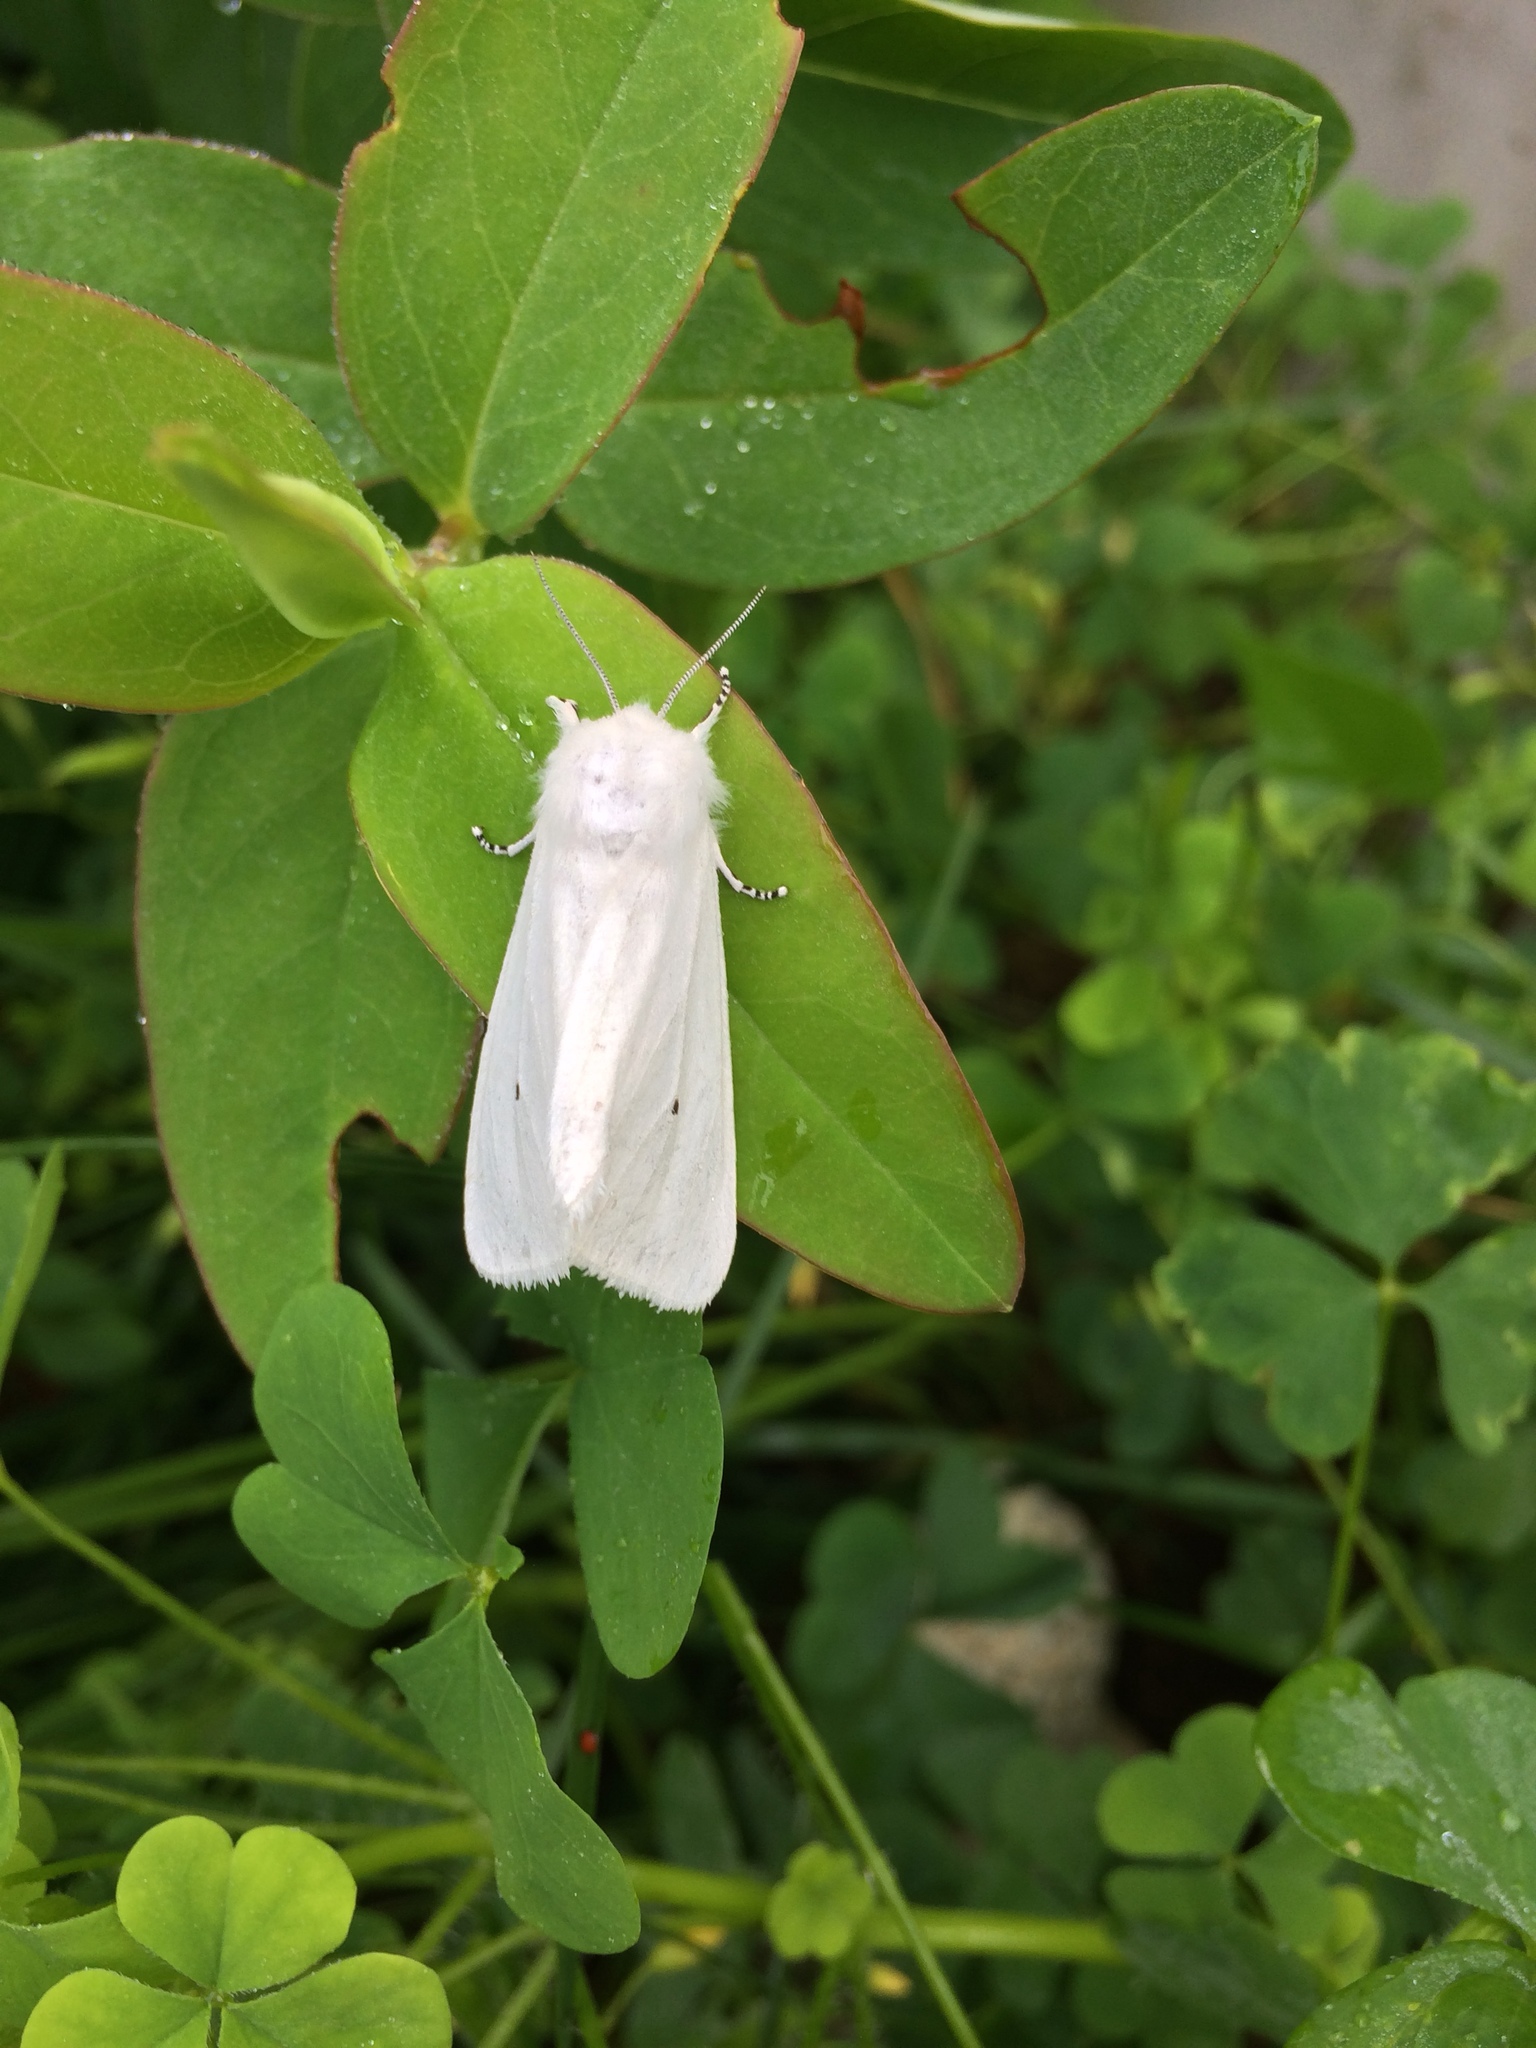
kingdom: Animalia
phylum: Arthropoda
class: Insecta
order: Lepidoptera
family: Erebidae
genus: Spilosoma
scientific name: Spilosoma virginica
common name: Virginia tiger moth
